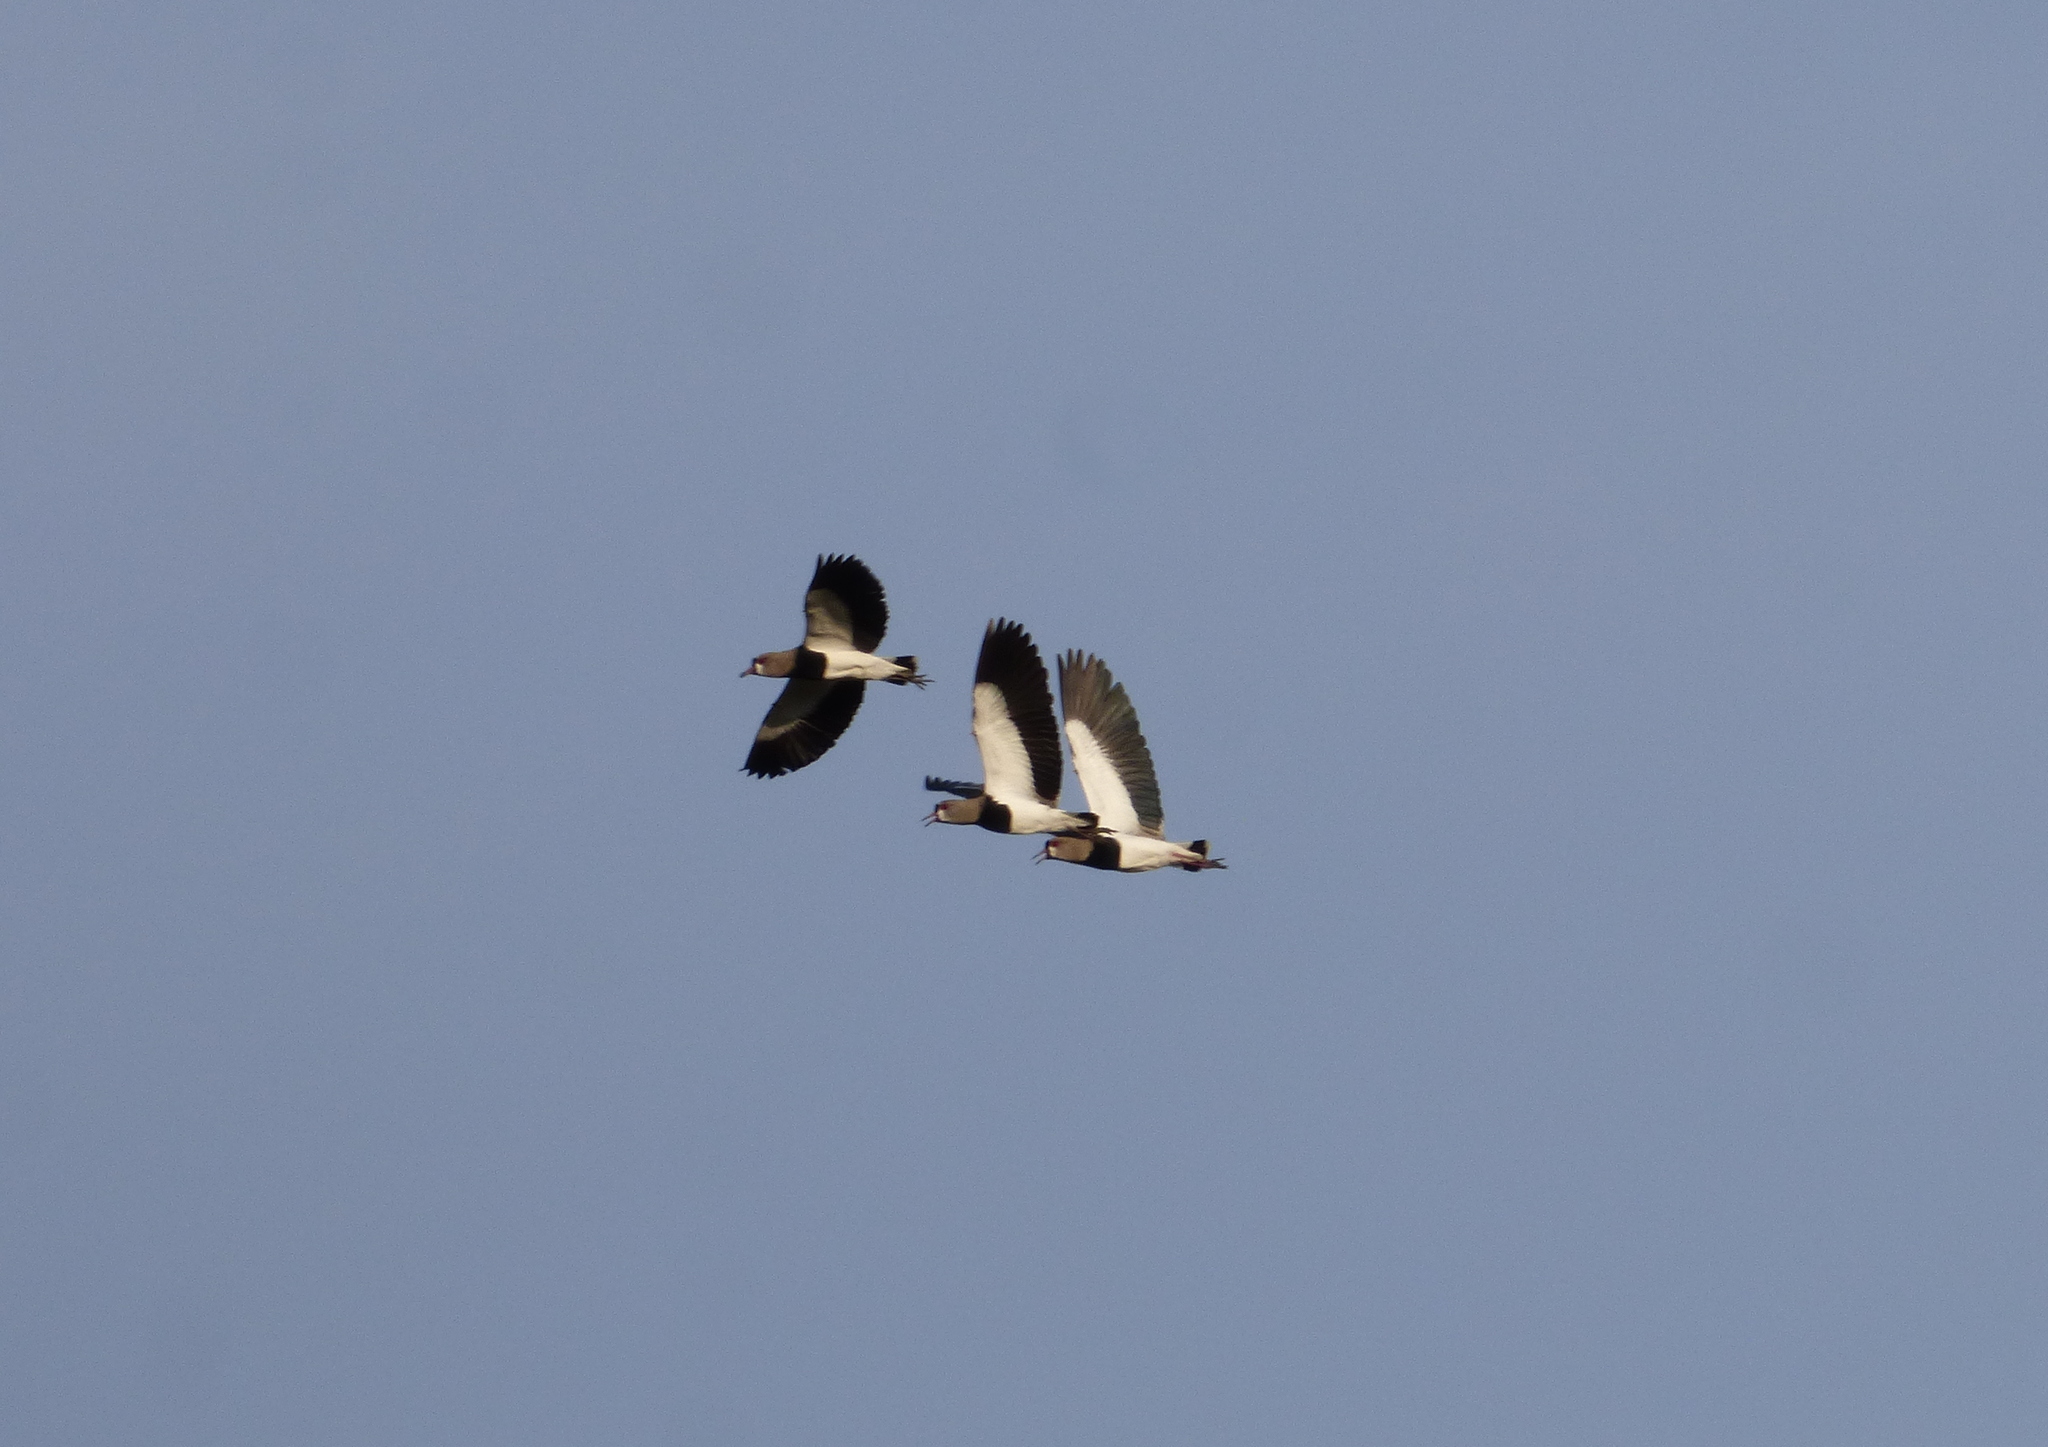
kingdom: Animalia
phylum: Chordata
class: Aves
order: Charadriiformes
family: Charadriidae
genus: Vanellus
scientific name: Vanellus chilensis
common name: Southern lapwing
